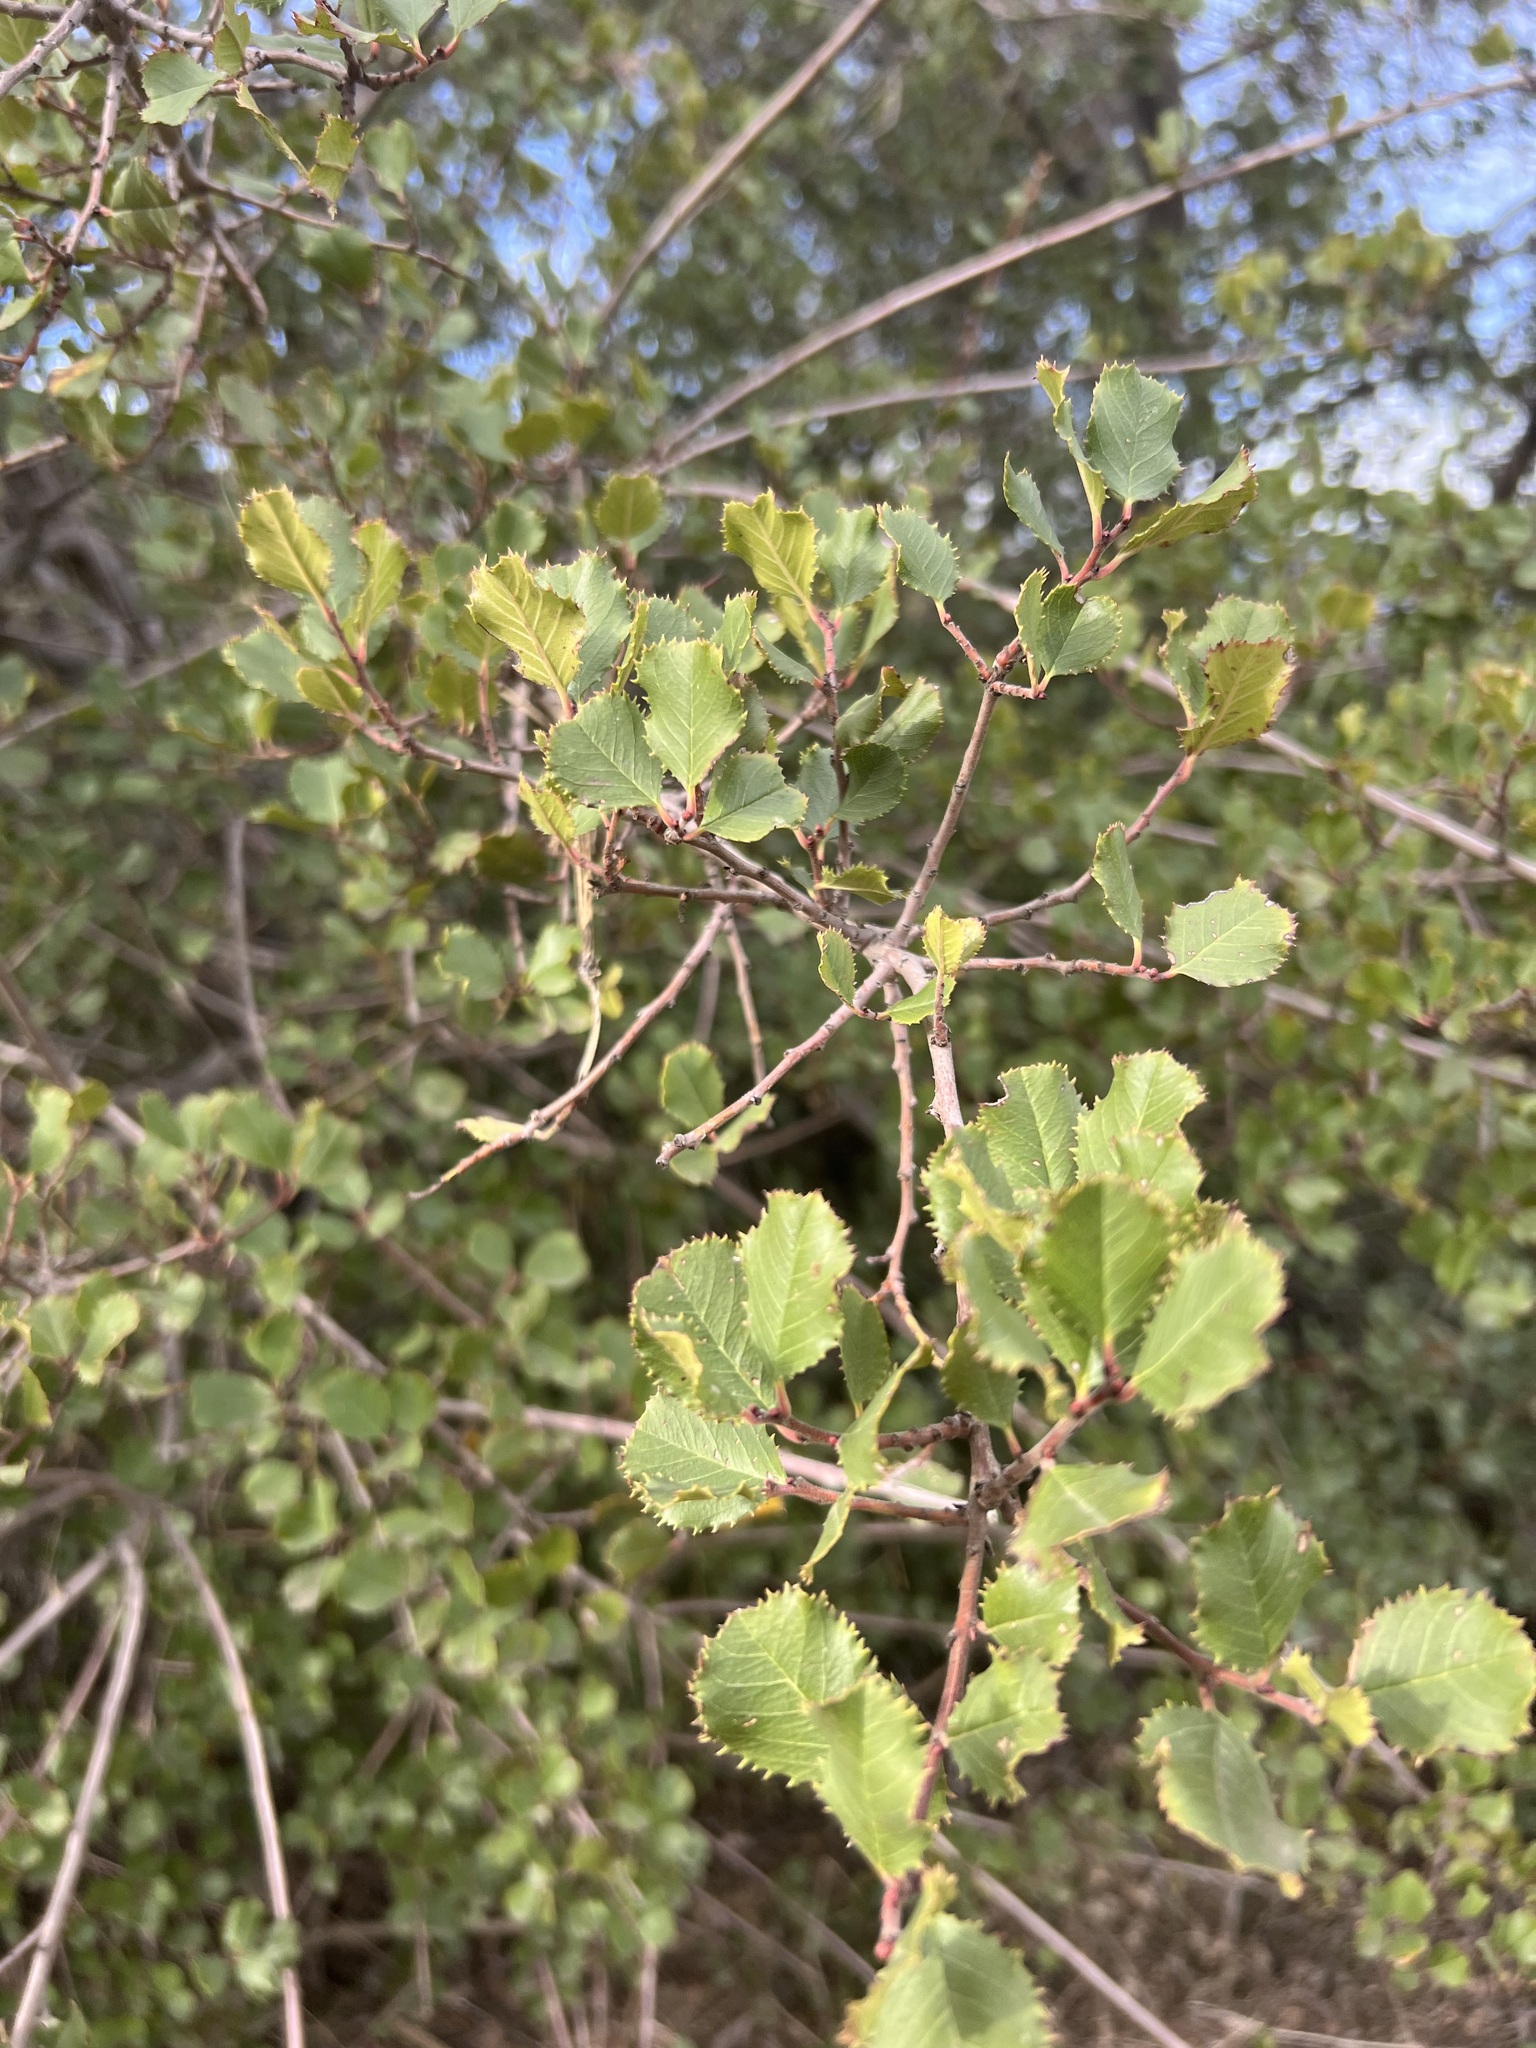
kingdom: Plantae
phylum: Tracheophyta
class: Magnoliopsida
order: Rosales
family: Rhamnaceae
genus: Endotropis
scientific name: Endotropis crocea
